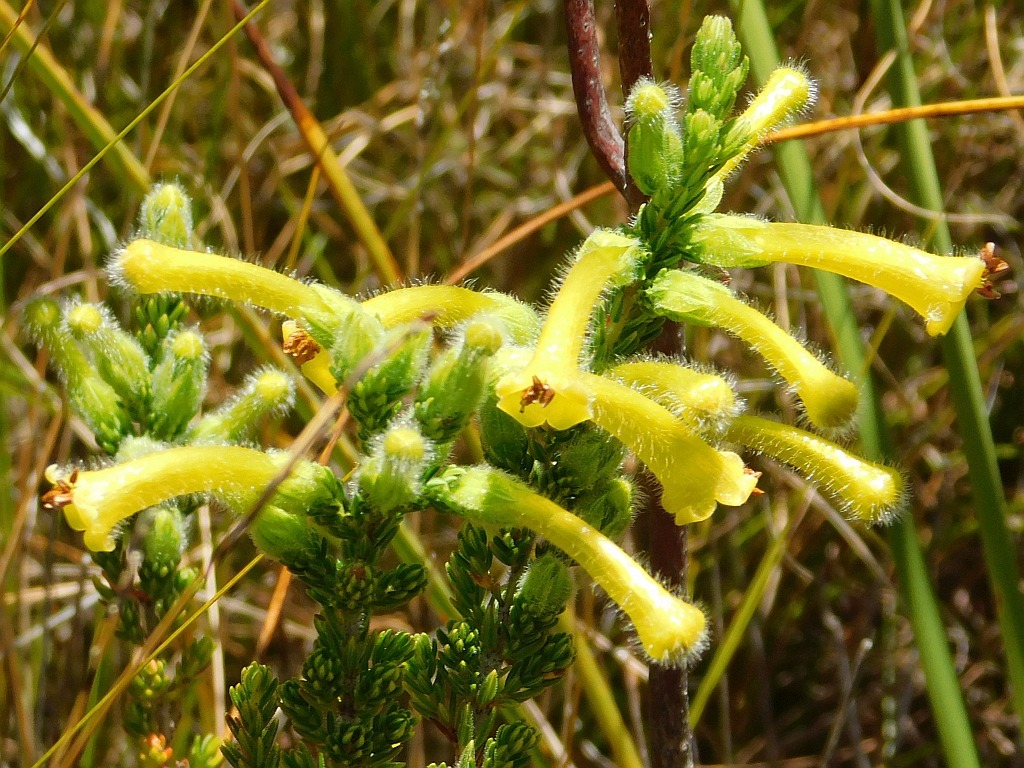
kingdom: Plantae
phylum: Tracheophyta
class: Magnoliopsida
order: Ericales
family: Ericaceae
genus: Erica
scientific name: Erica stagnalis
